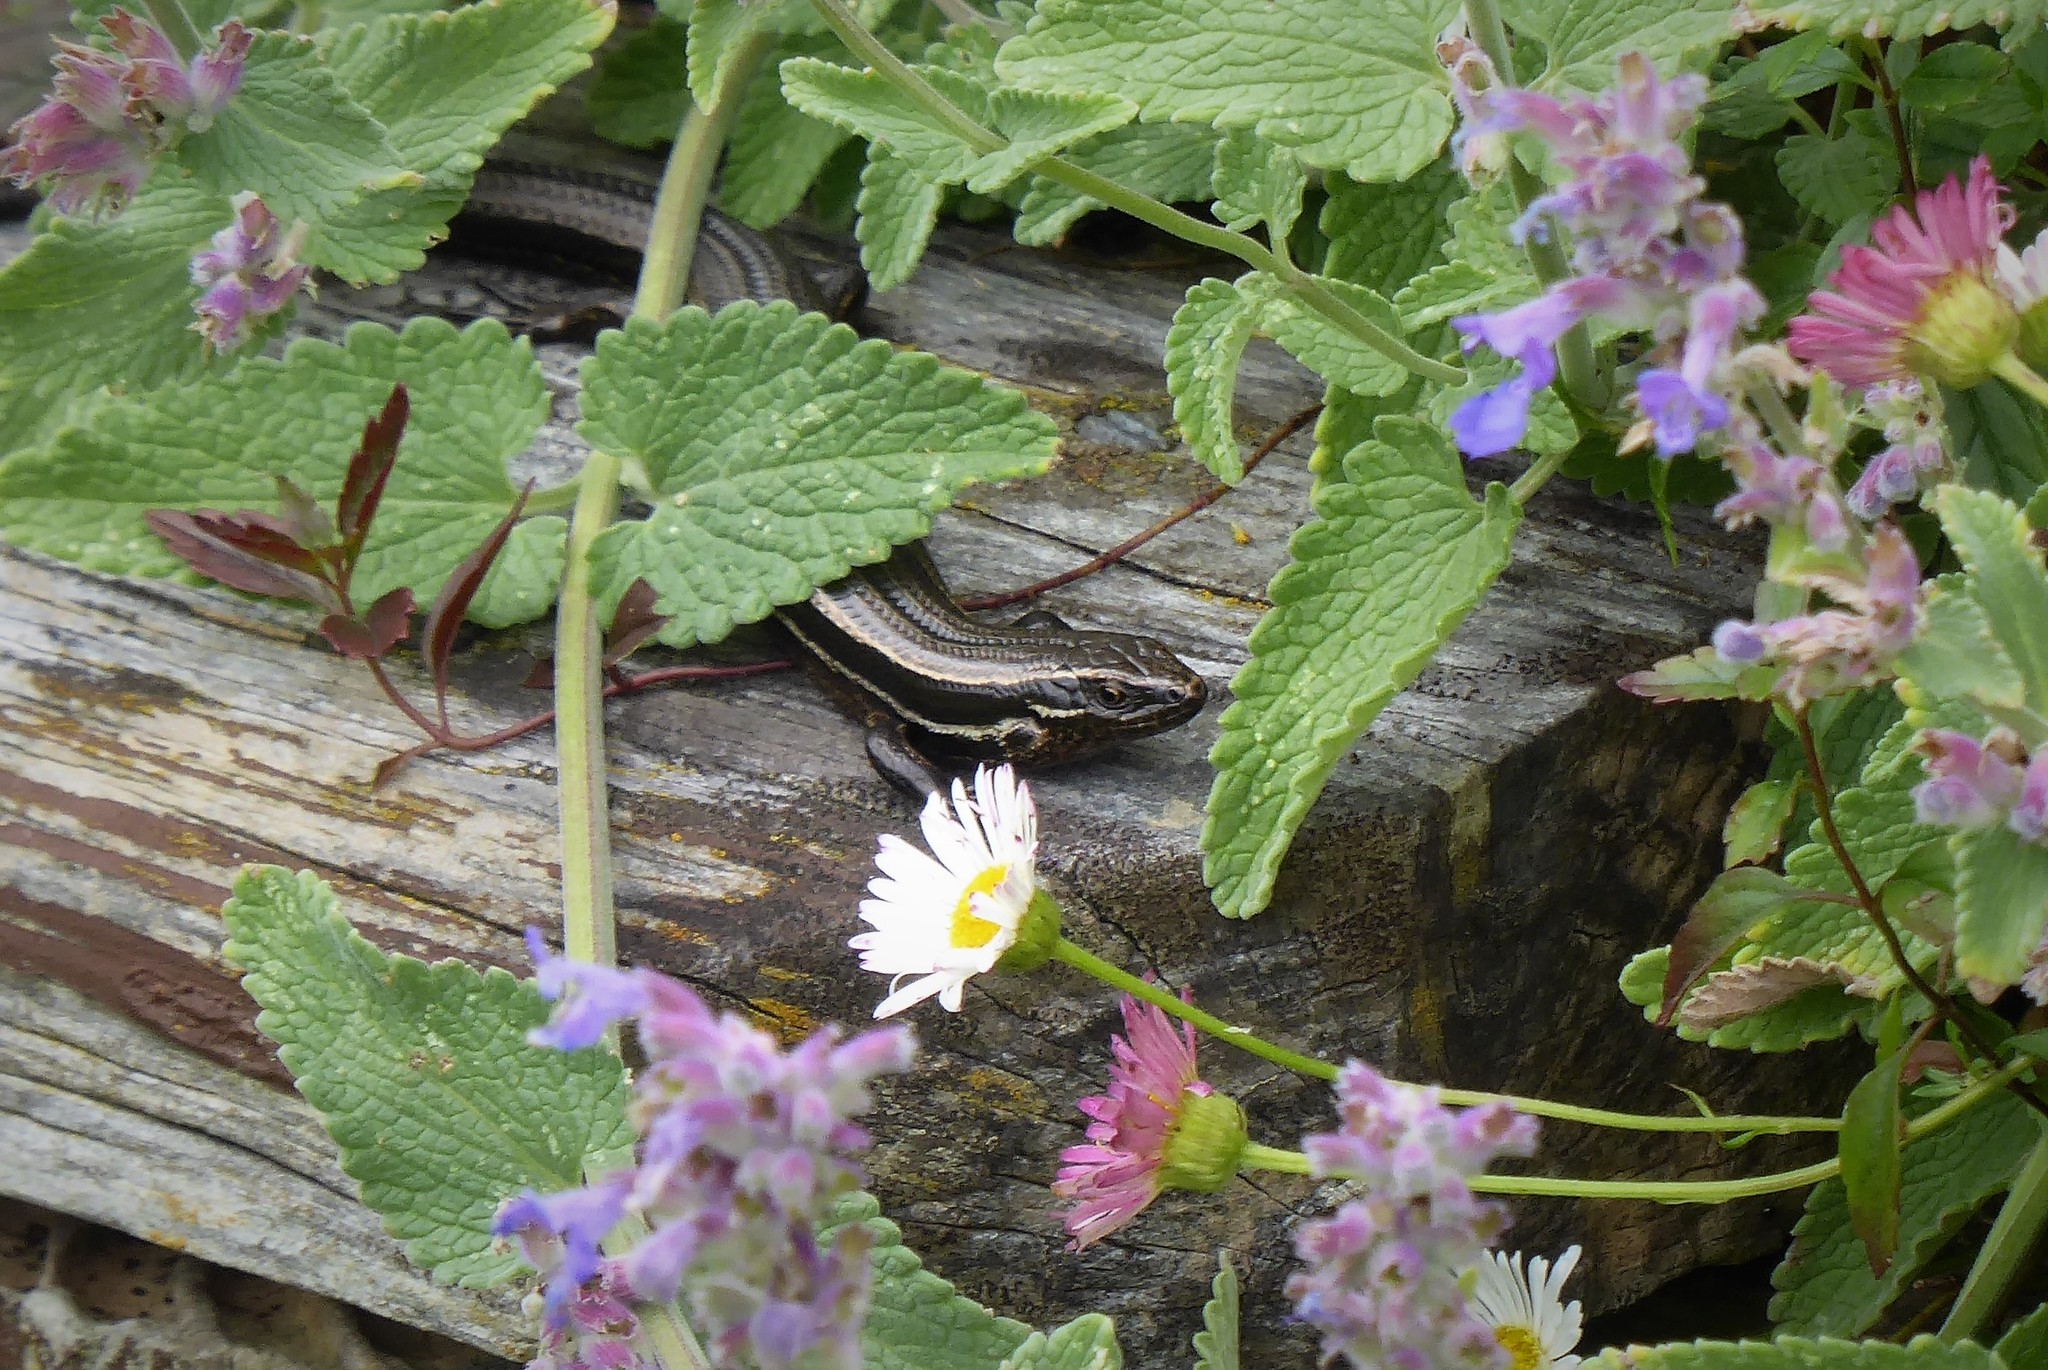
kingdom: Animalia
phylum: Chordata
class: Squamata
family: Scincidae
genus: Oligosoma
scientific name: Oligosoma polychroma
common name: Common new zealand skink
